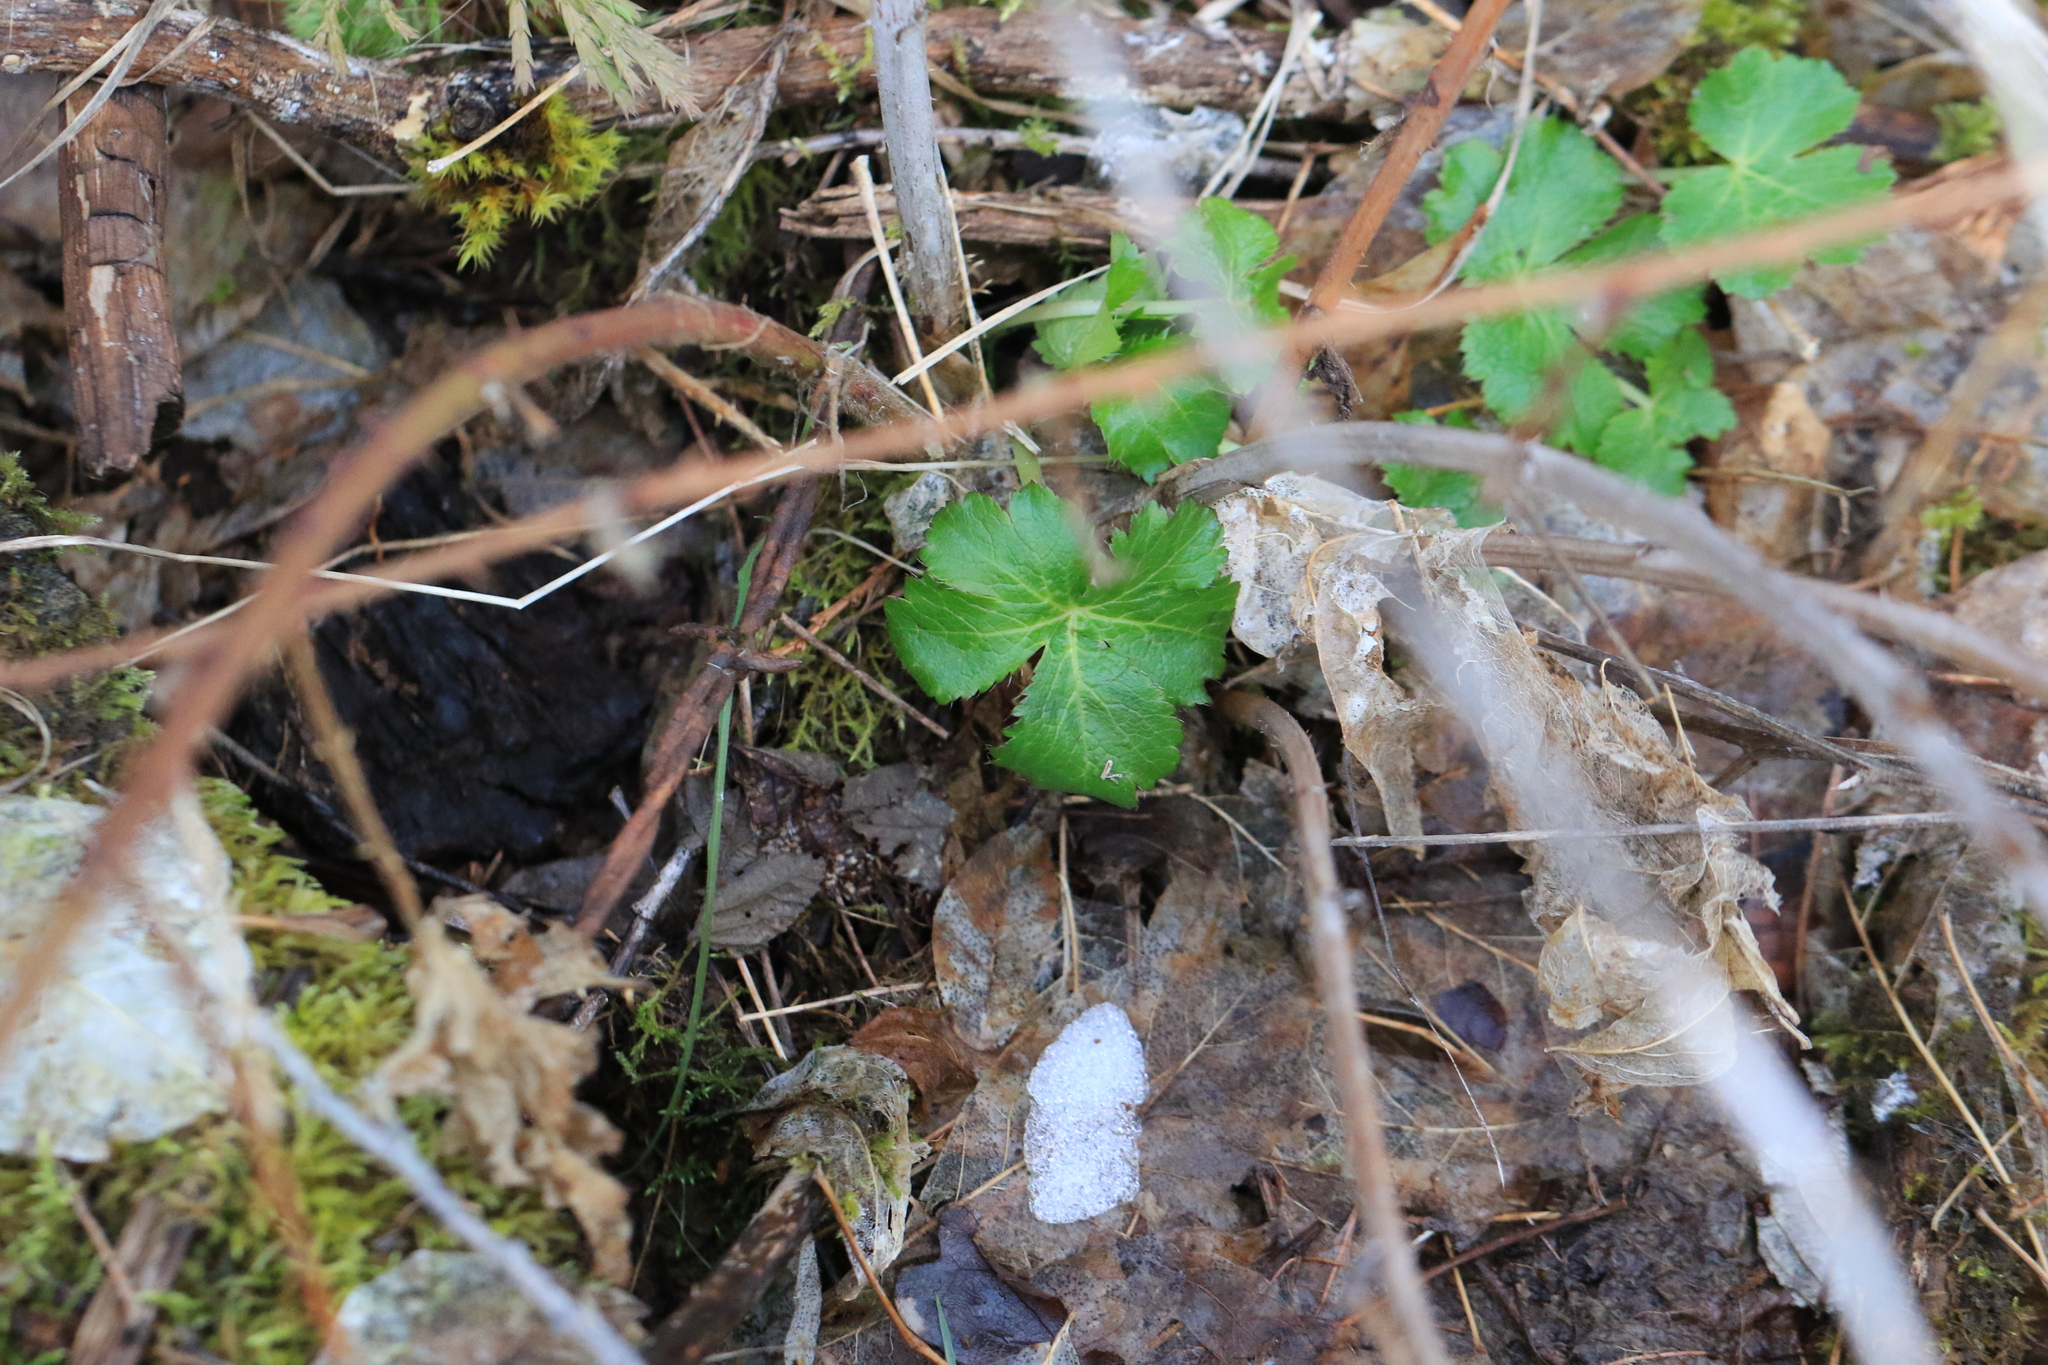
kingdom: Plantae
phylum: Tracheophyta
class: Magnoliopsida
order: Apiales
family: Apiaceae
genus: Sanicula
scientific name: Sanicula crassicaulis
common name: Western snakeroot
